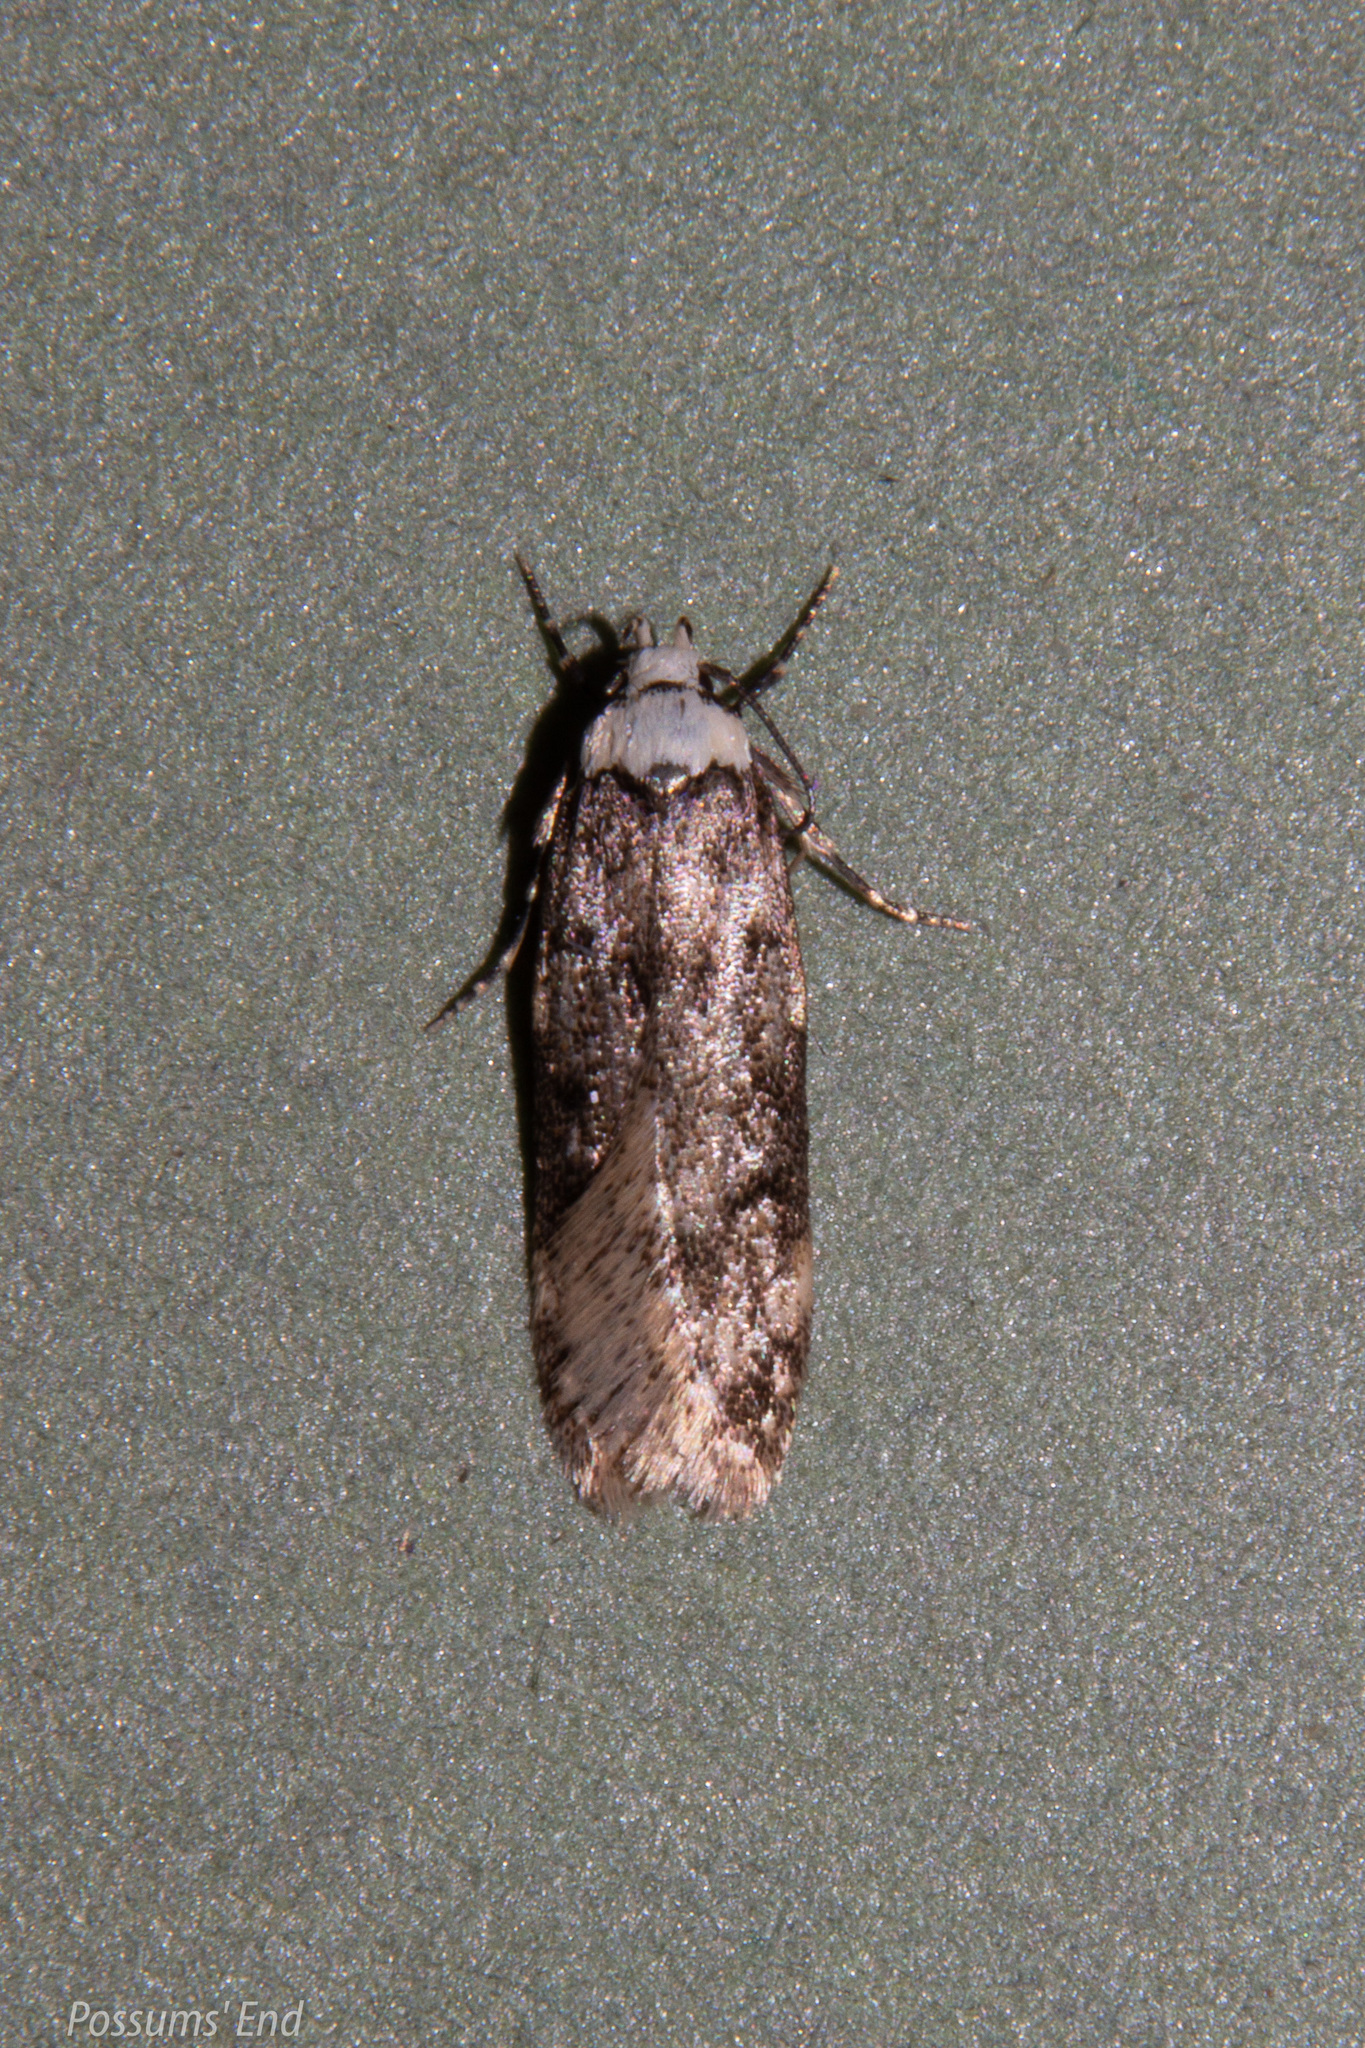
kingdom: Animalia
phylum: Arthropoda
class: Insecta
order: Lepidoptera
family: Oecophoridae
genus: Endrosis
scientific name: Endrosis sarcitrella
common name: White-shouldered house moth
